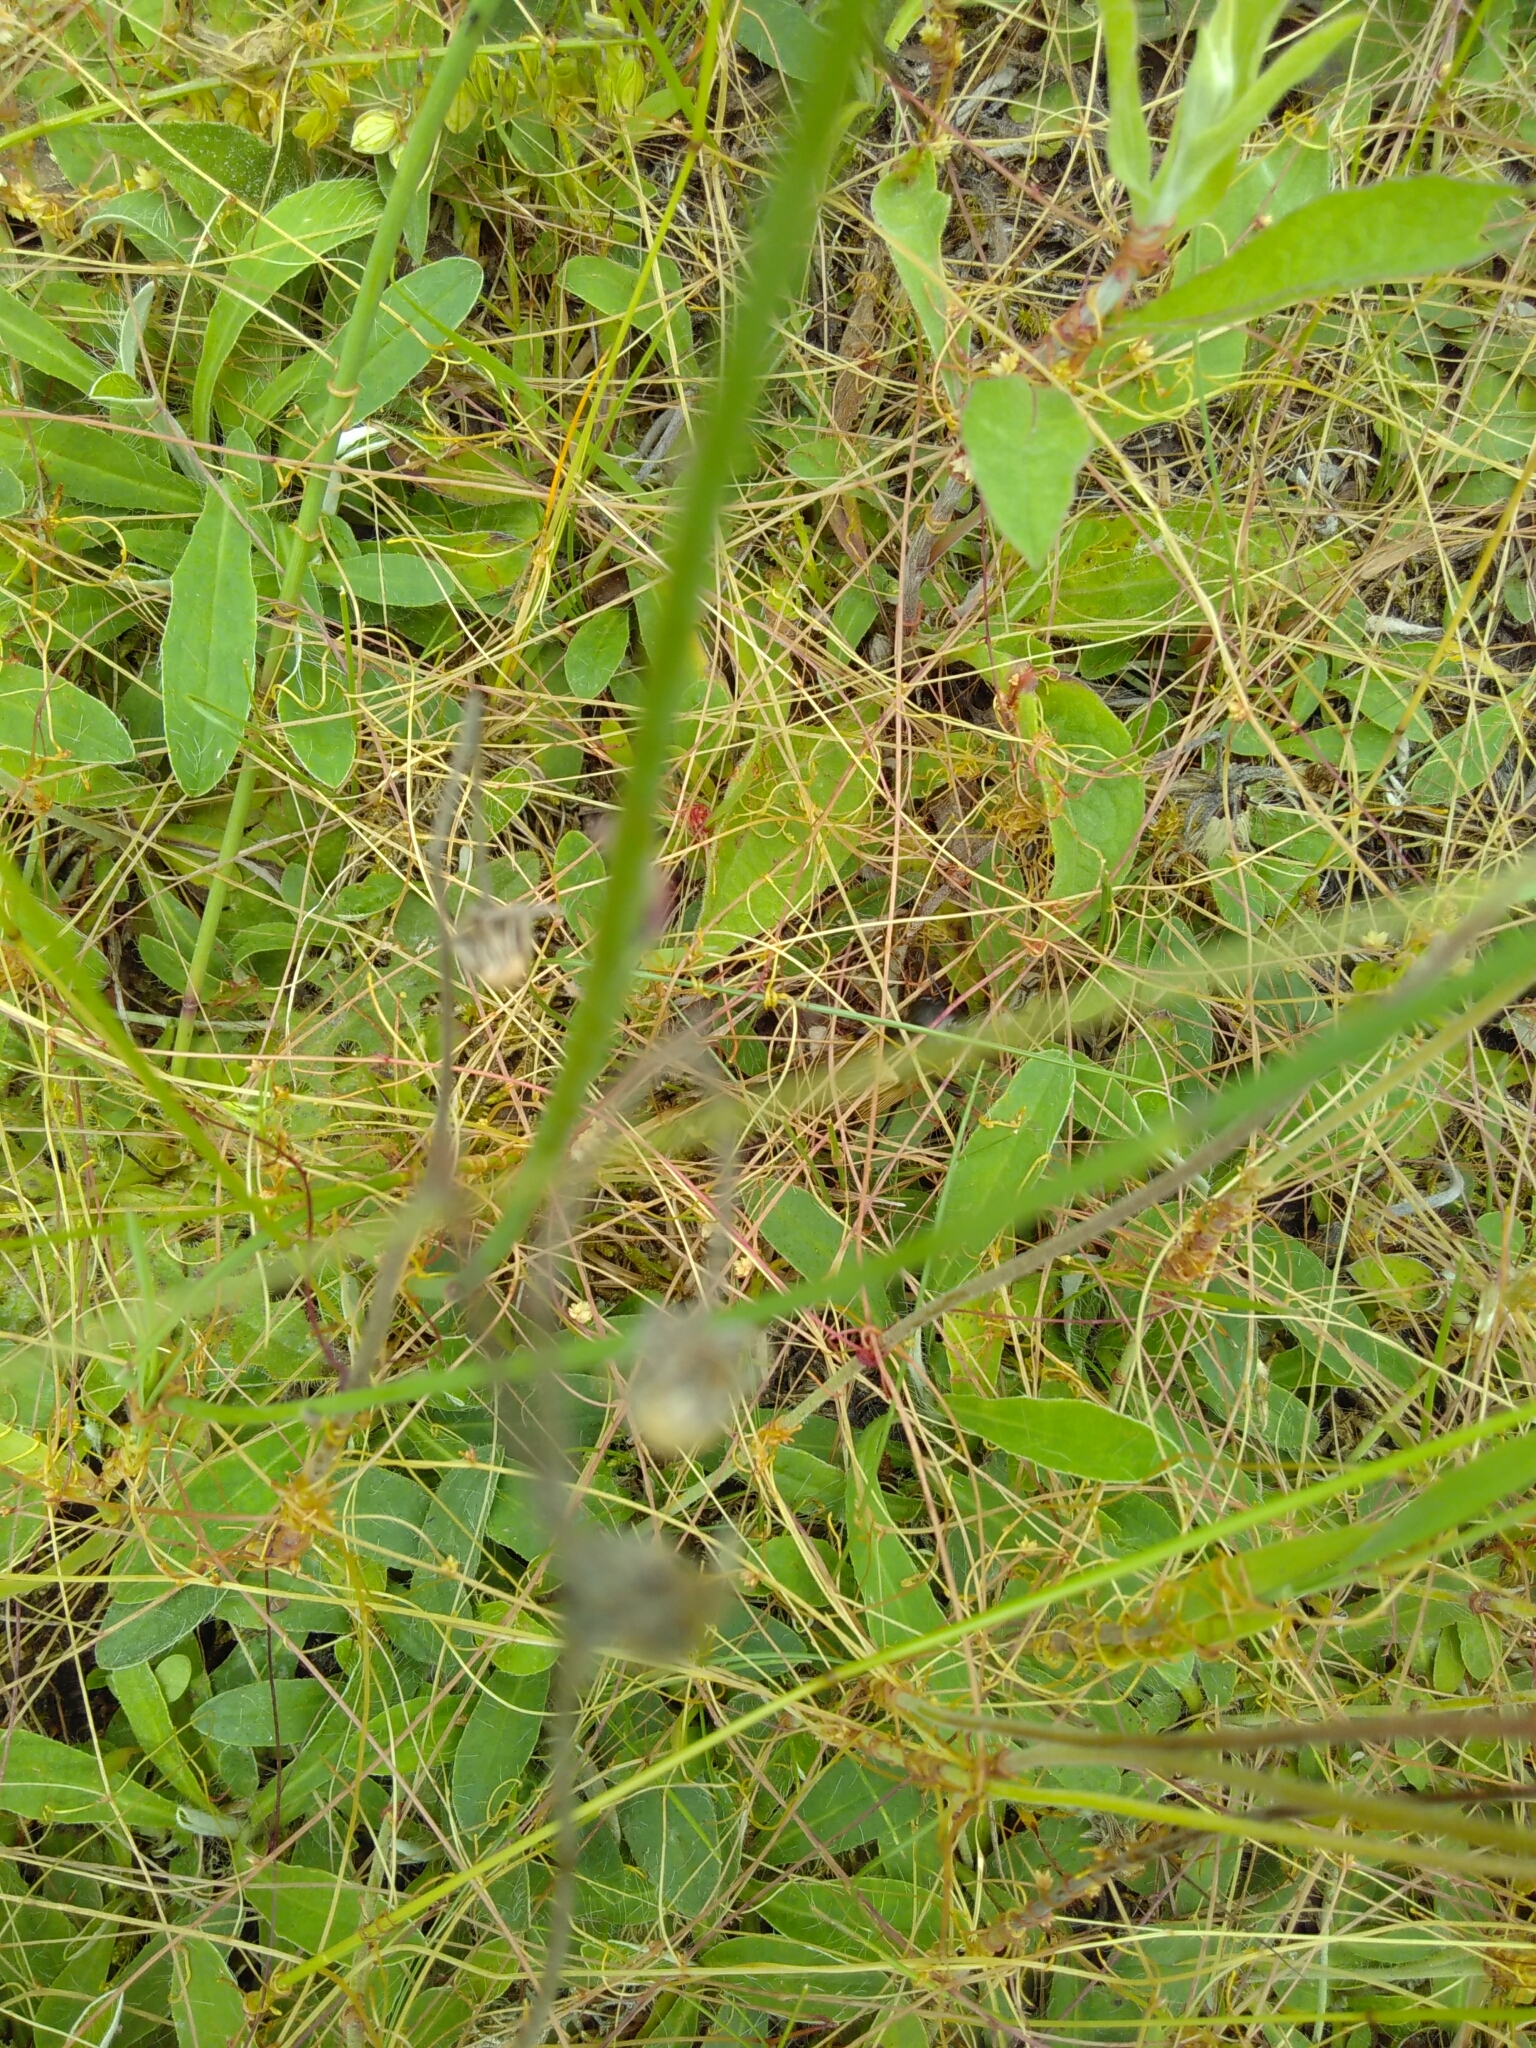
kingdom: Animalia
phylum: Arthropoda
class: Insecta
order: Orthoptera
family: Gryllidae
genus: Gryllus
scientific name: Gryllus campestris
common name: Field cricket
